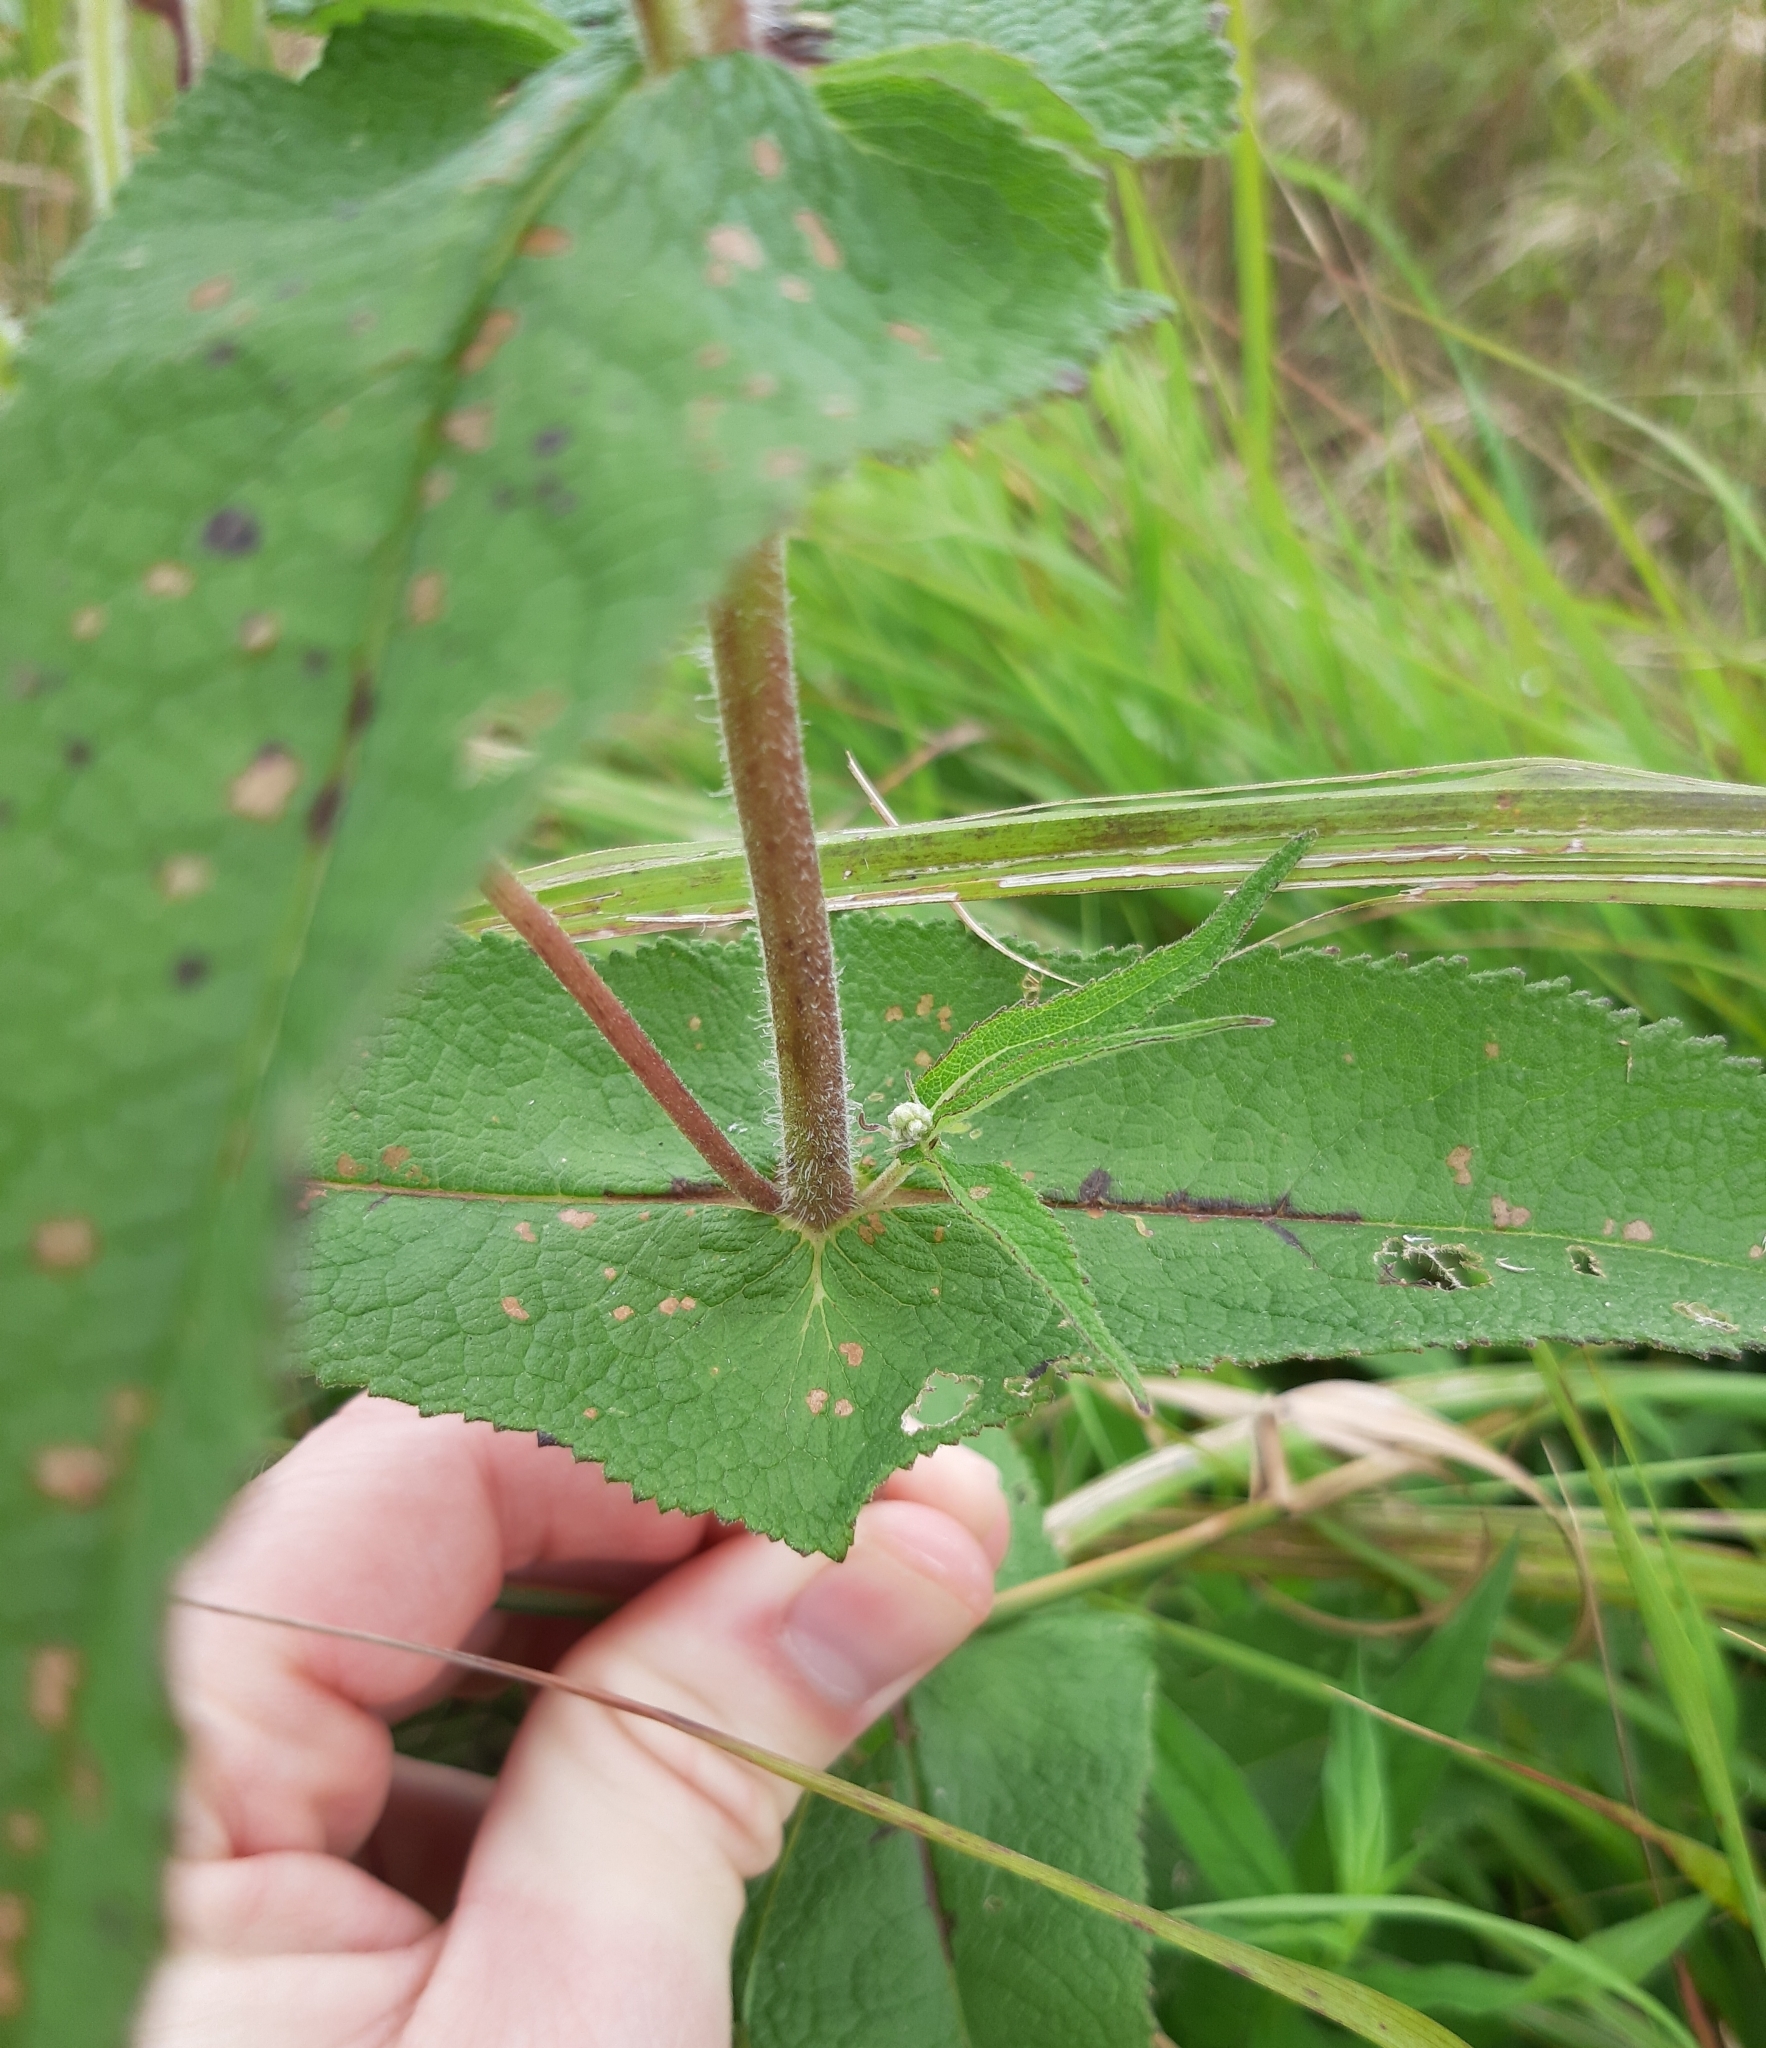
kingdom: Plantae
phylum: Tracheophyta
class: Magnoliopsida
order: Asterales
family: Asteraceae
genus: Eupatorium
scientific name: Eupatorium perfoliatum
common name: Boneset
